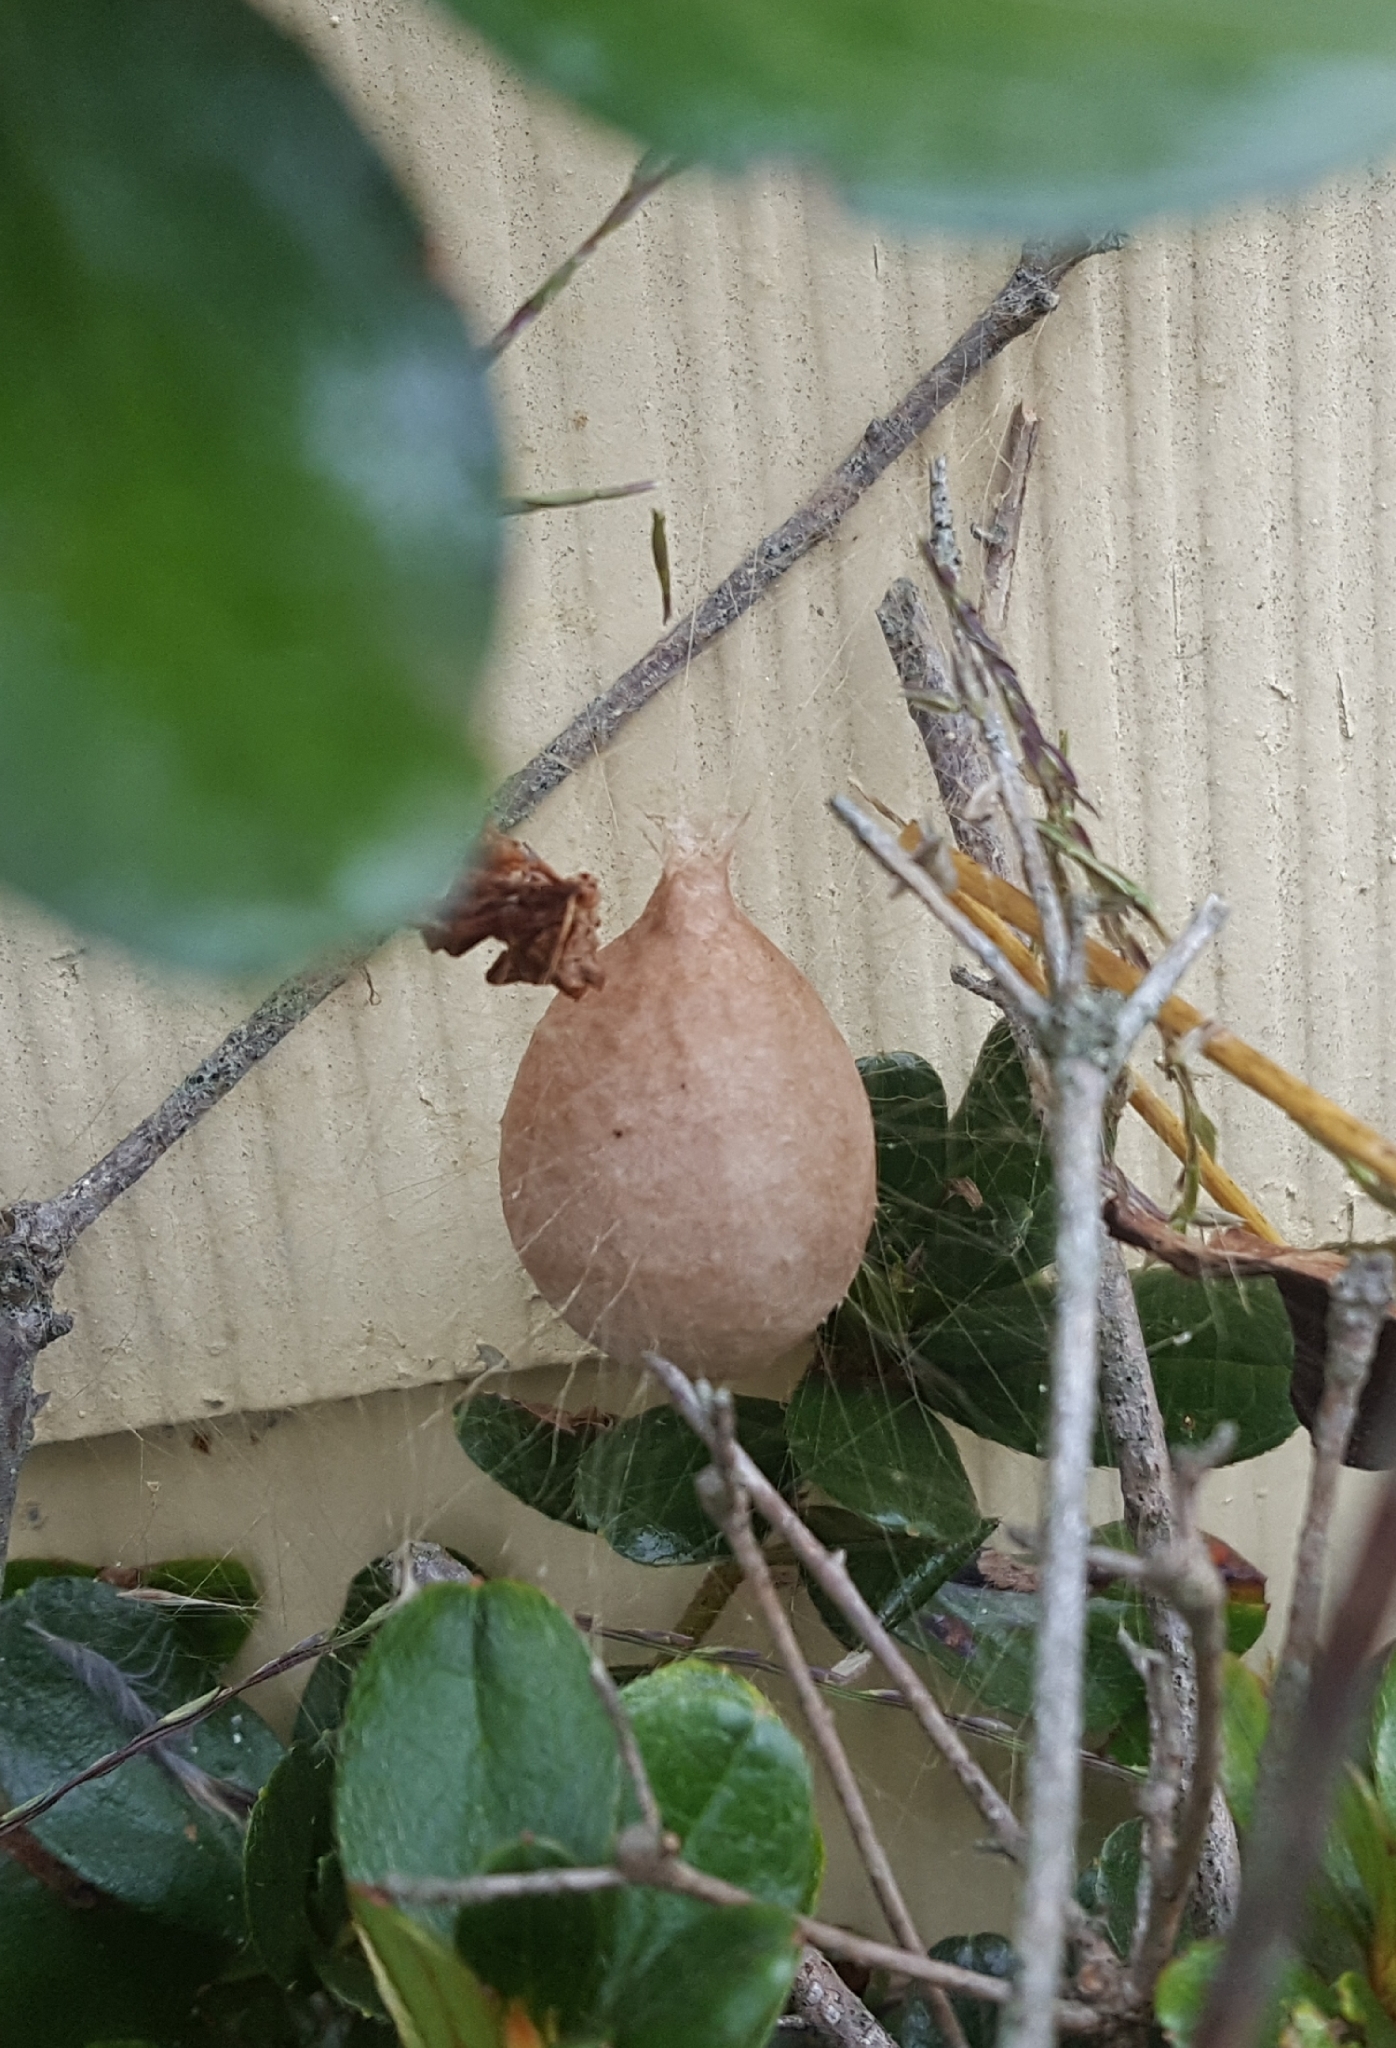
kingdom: Animalia
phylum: Arthropoda
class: Arachnida
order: Araneae
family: Araneidae
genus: Argiope
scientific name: Argiope aurantia
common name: Orb weavers
